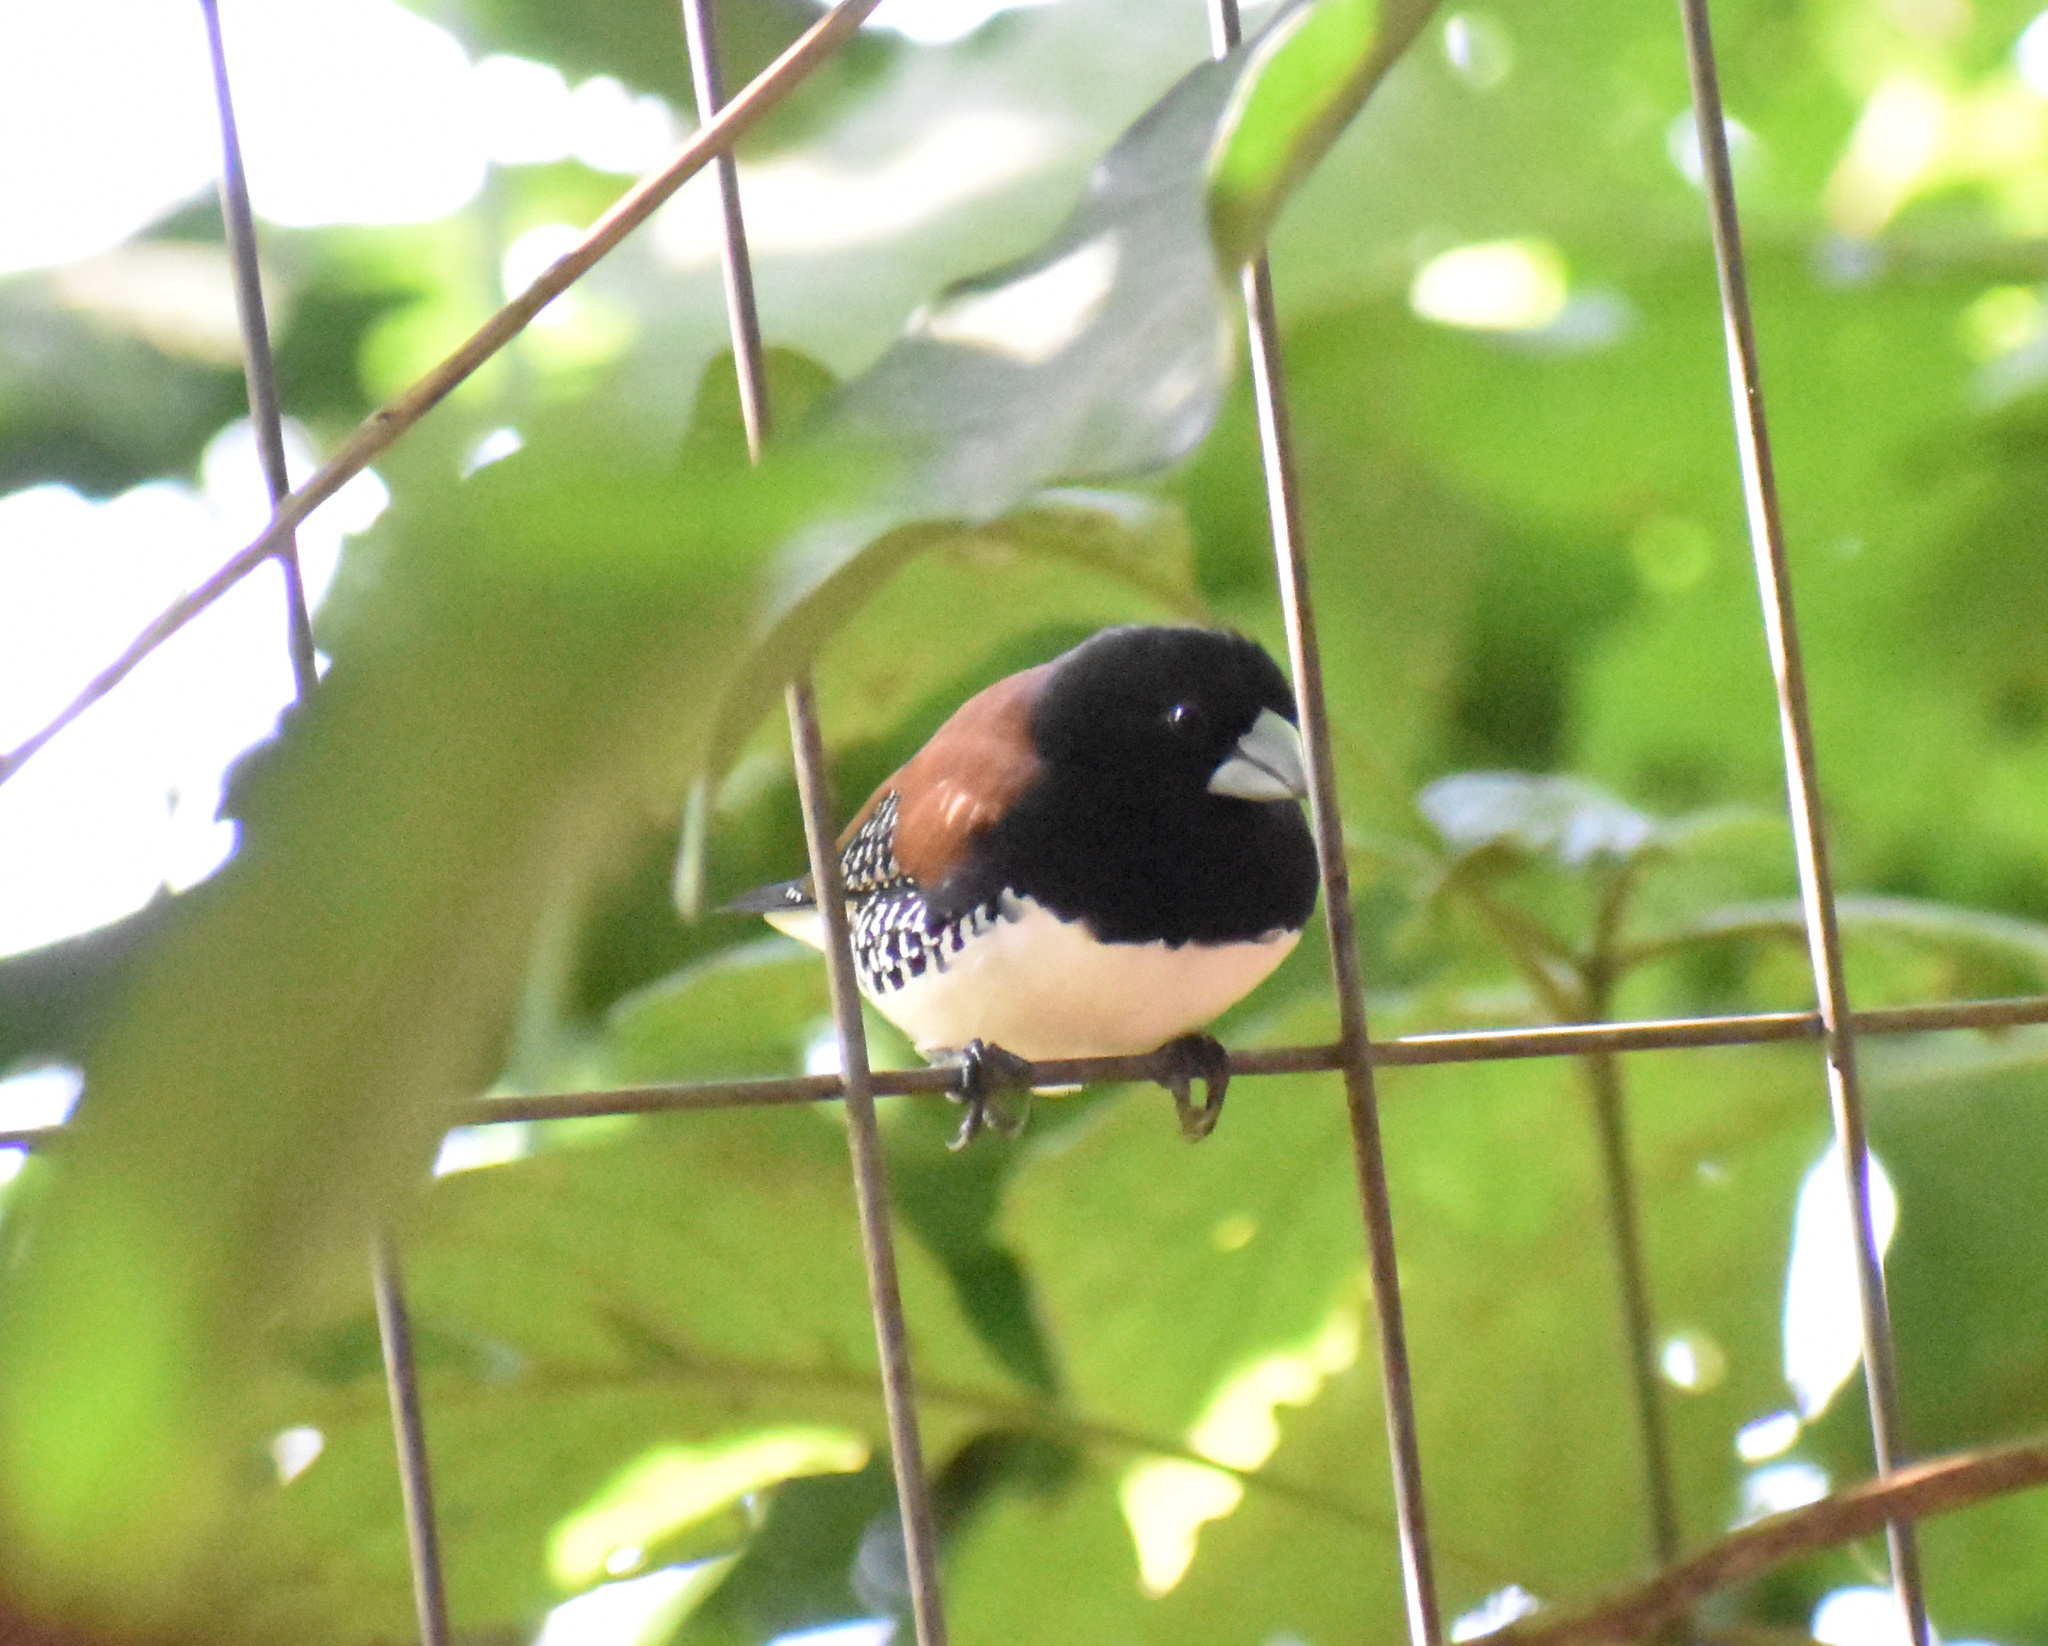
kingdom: Animalia
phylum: Chordata
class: Aves
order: Passeriformes
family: Estrildidae
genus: Lonchura
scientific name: Lonchura nigriceps
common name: Red-backed mannikin
